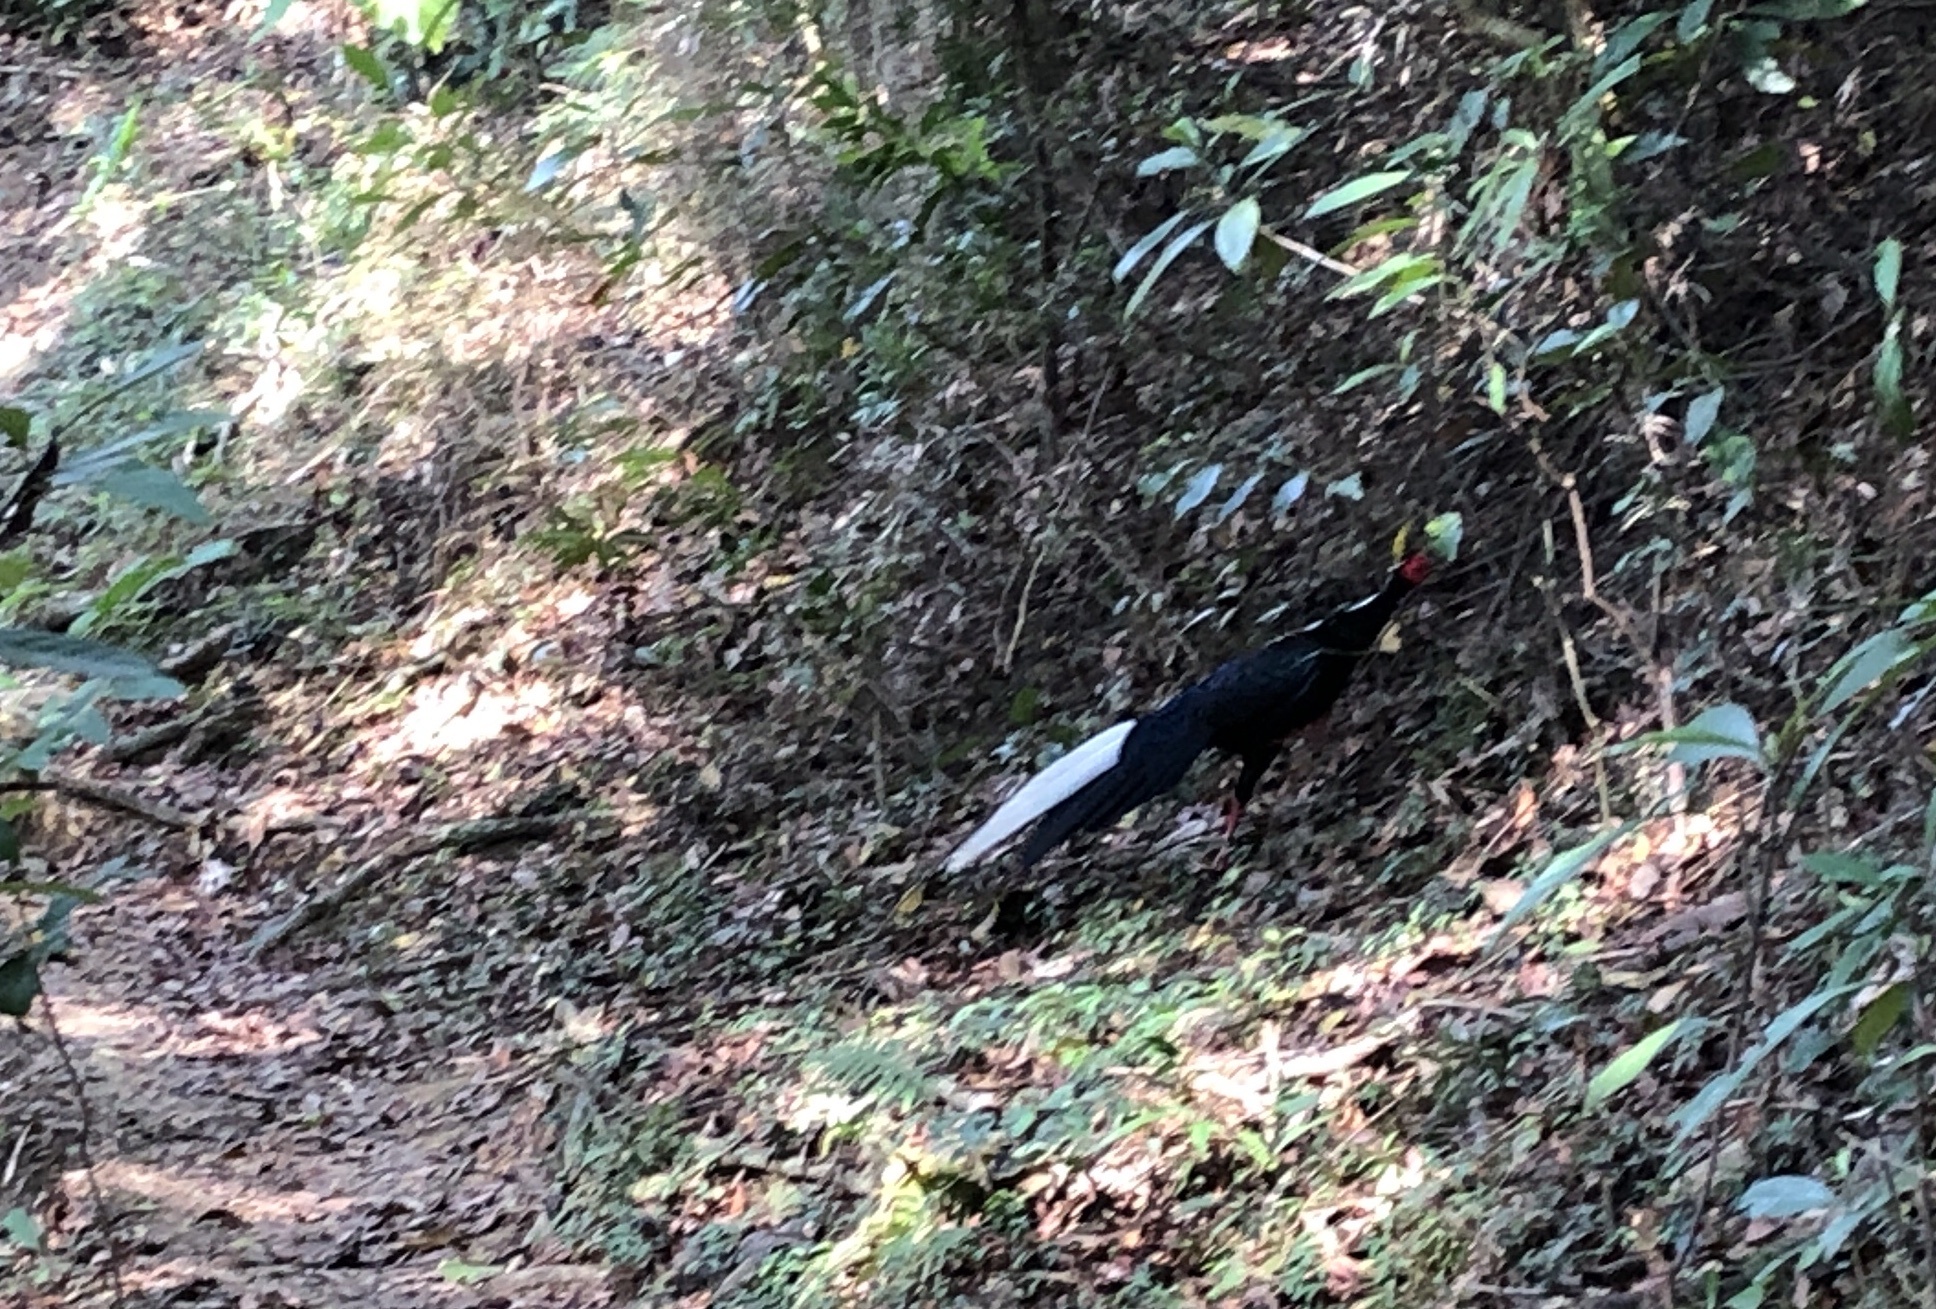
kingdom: Animalia
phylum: Chordata
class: Aves
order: Galliformes
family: Phasianidae
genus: Lophura
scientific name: Lophura swinhoii
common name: Swinhoe's pheasant
